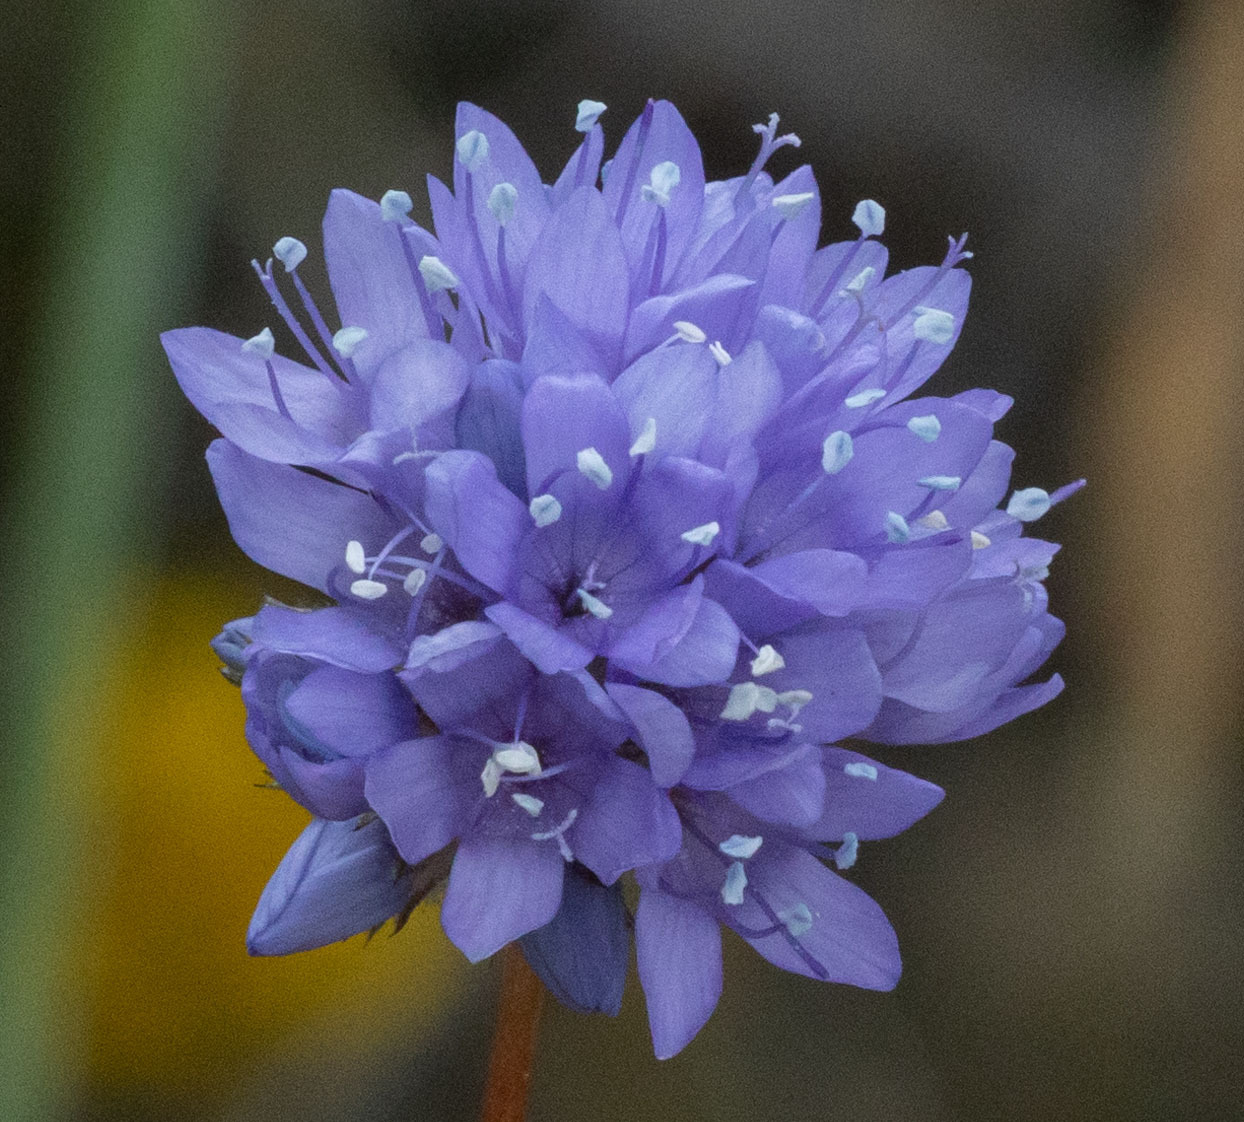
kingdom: Plantae
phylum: Tracheophyta
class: Magnoliopsida
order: Ericales
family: Polemoniaceae
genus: Gilia
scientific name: Gilia capitata
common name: Bluehead gilia
